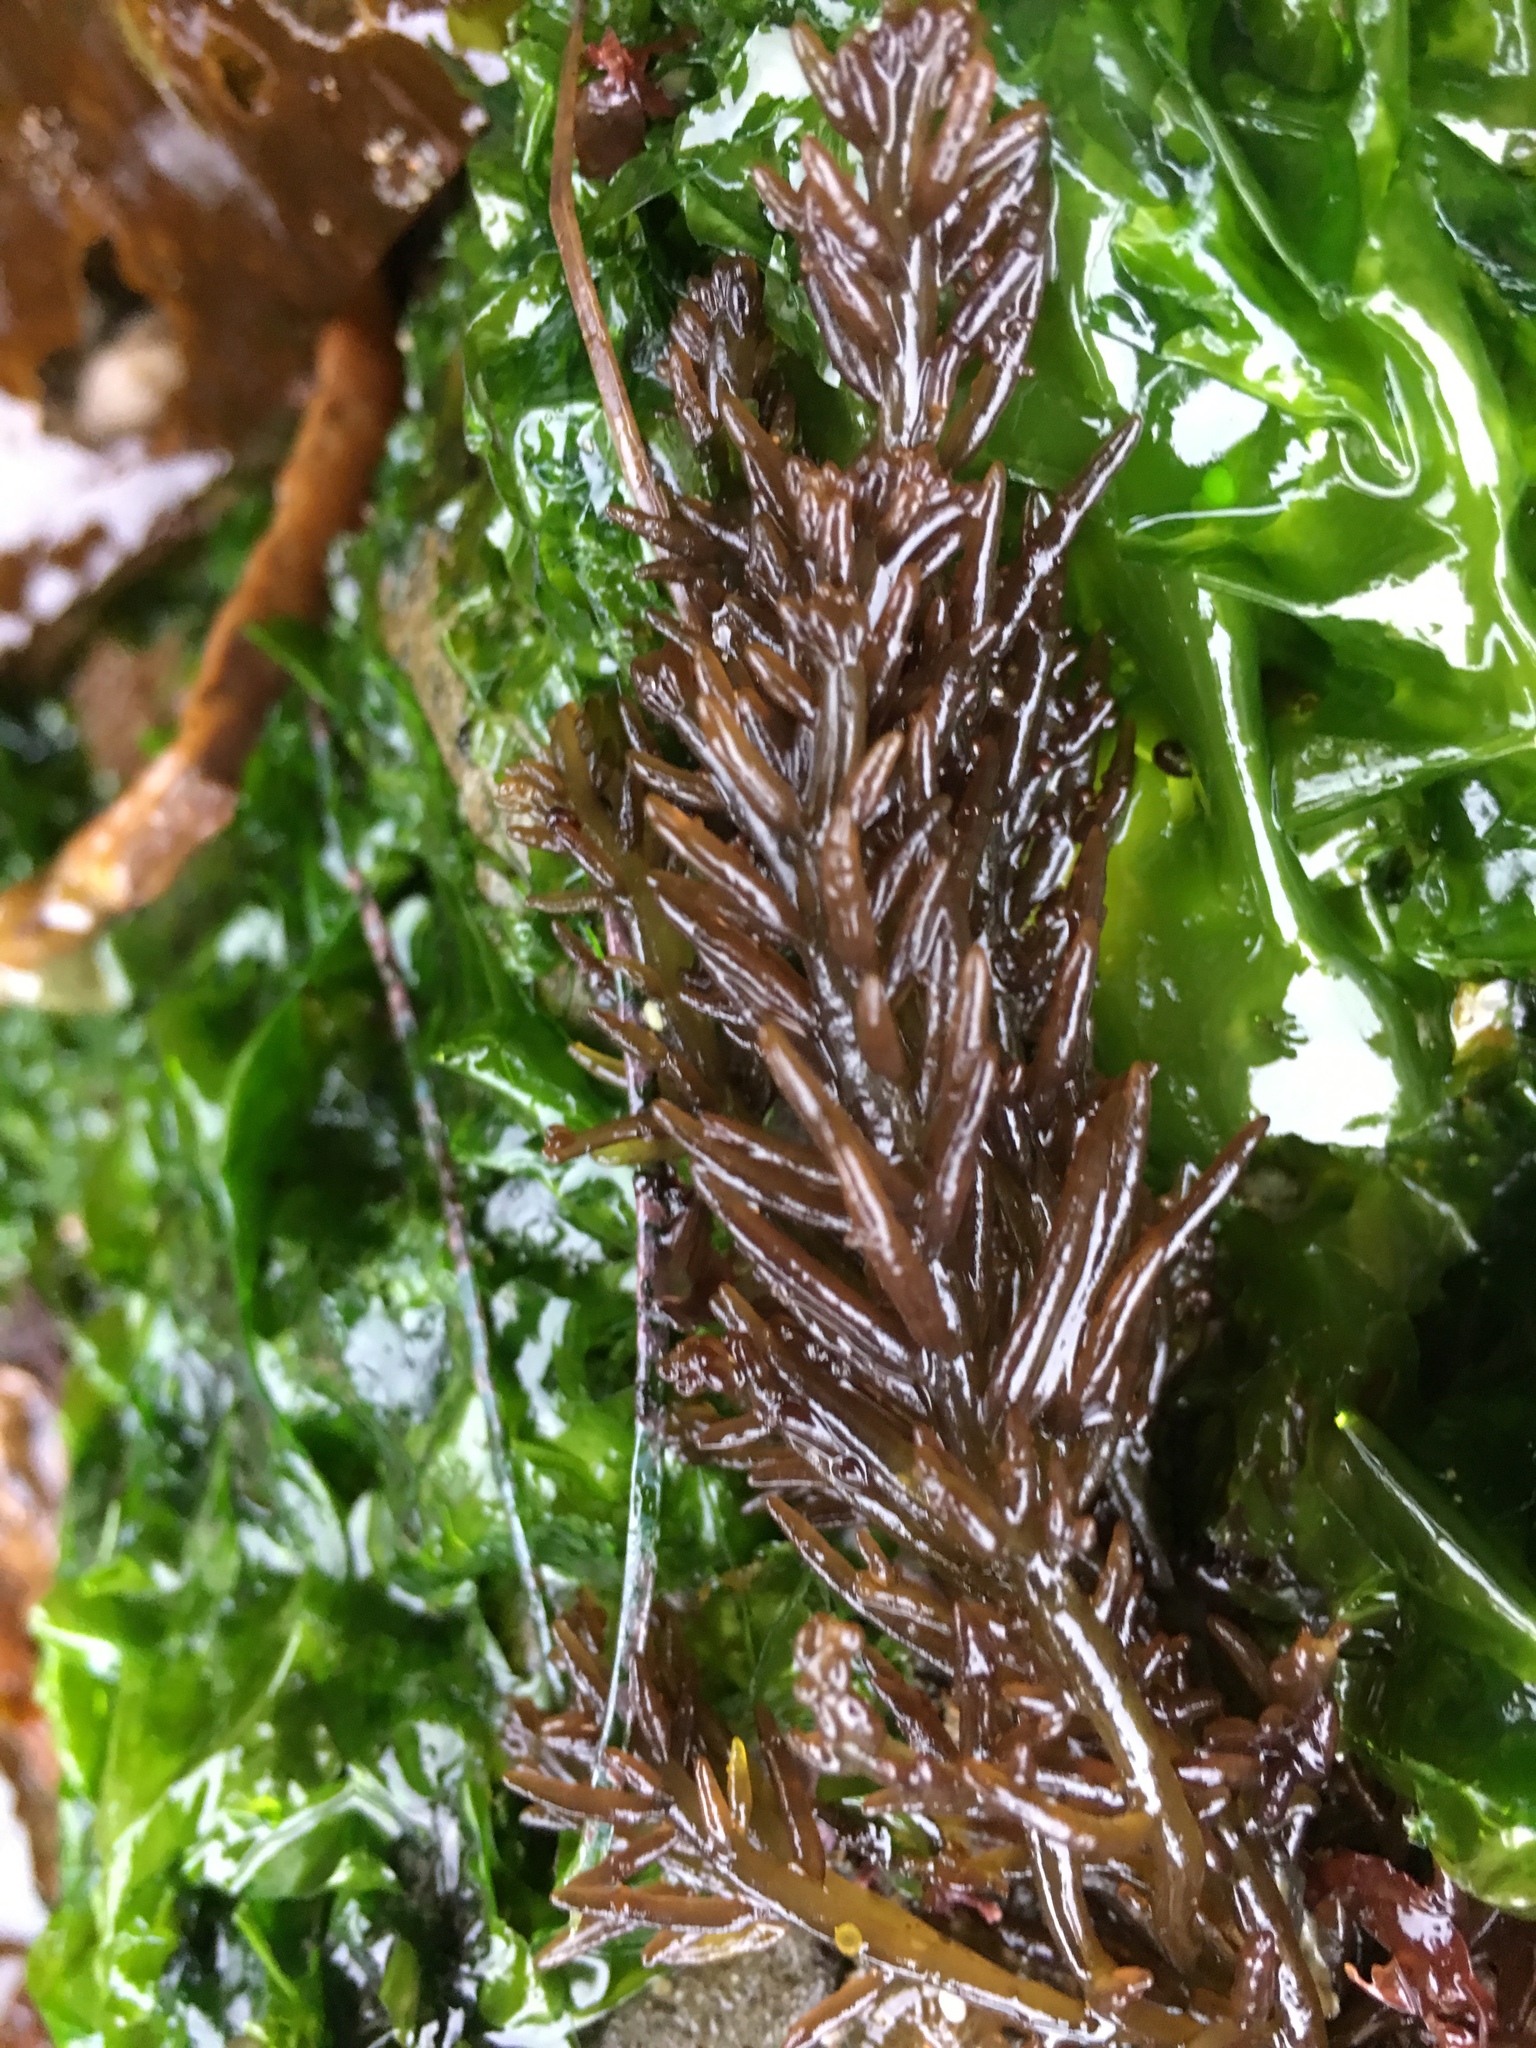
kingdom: Plantae
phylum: Rhodophyta
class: Florideophyceae
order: Rhodymeniales
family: Champiaceae
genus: Neogastroclonium
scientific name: Neogastroclonium subarticulatum
